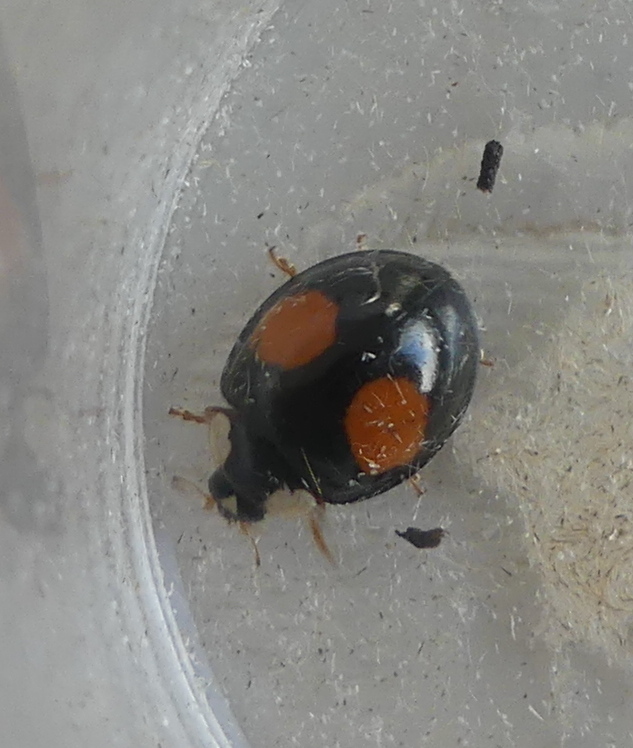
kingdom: Animalia
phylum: Arthropoda
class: Insecta
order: Coleoptera
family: Coccinellidae
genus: Harmonia
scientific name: Harmonia axyridis
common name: Harlequin ladybird
